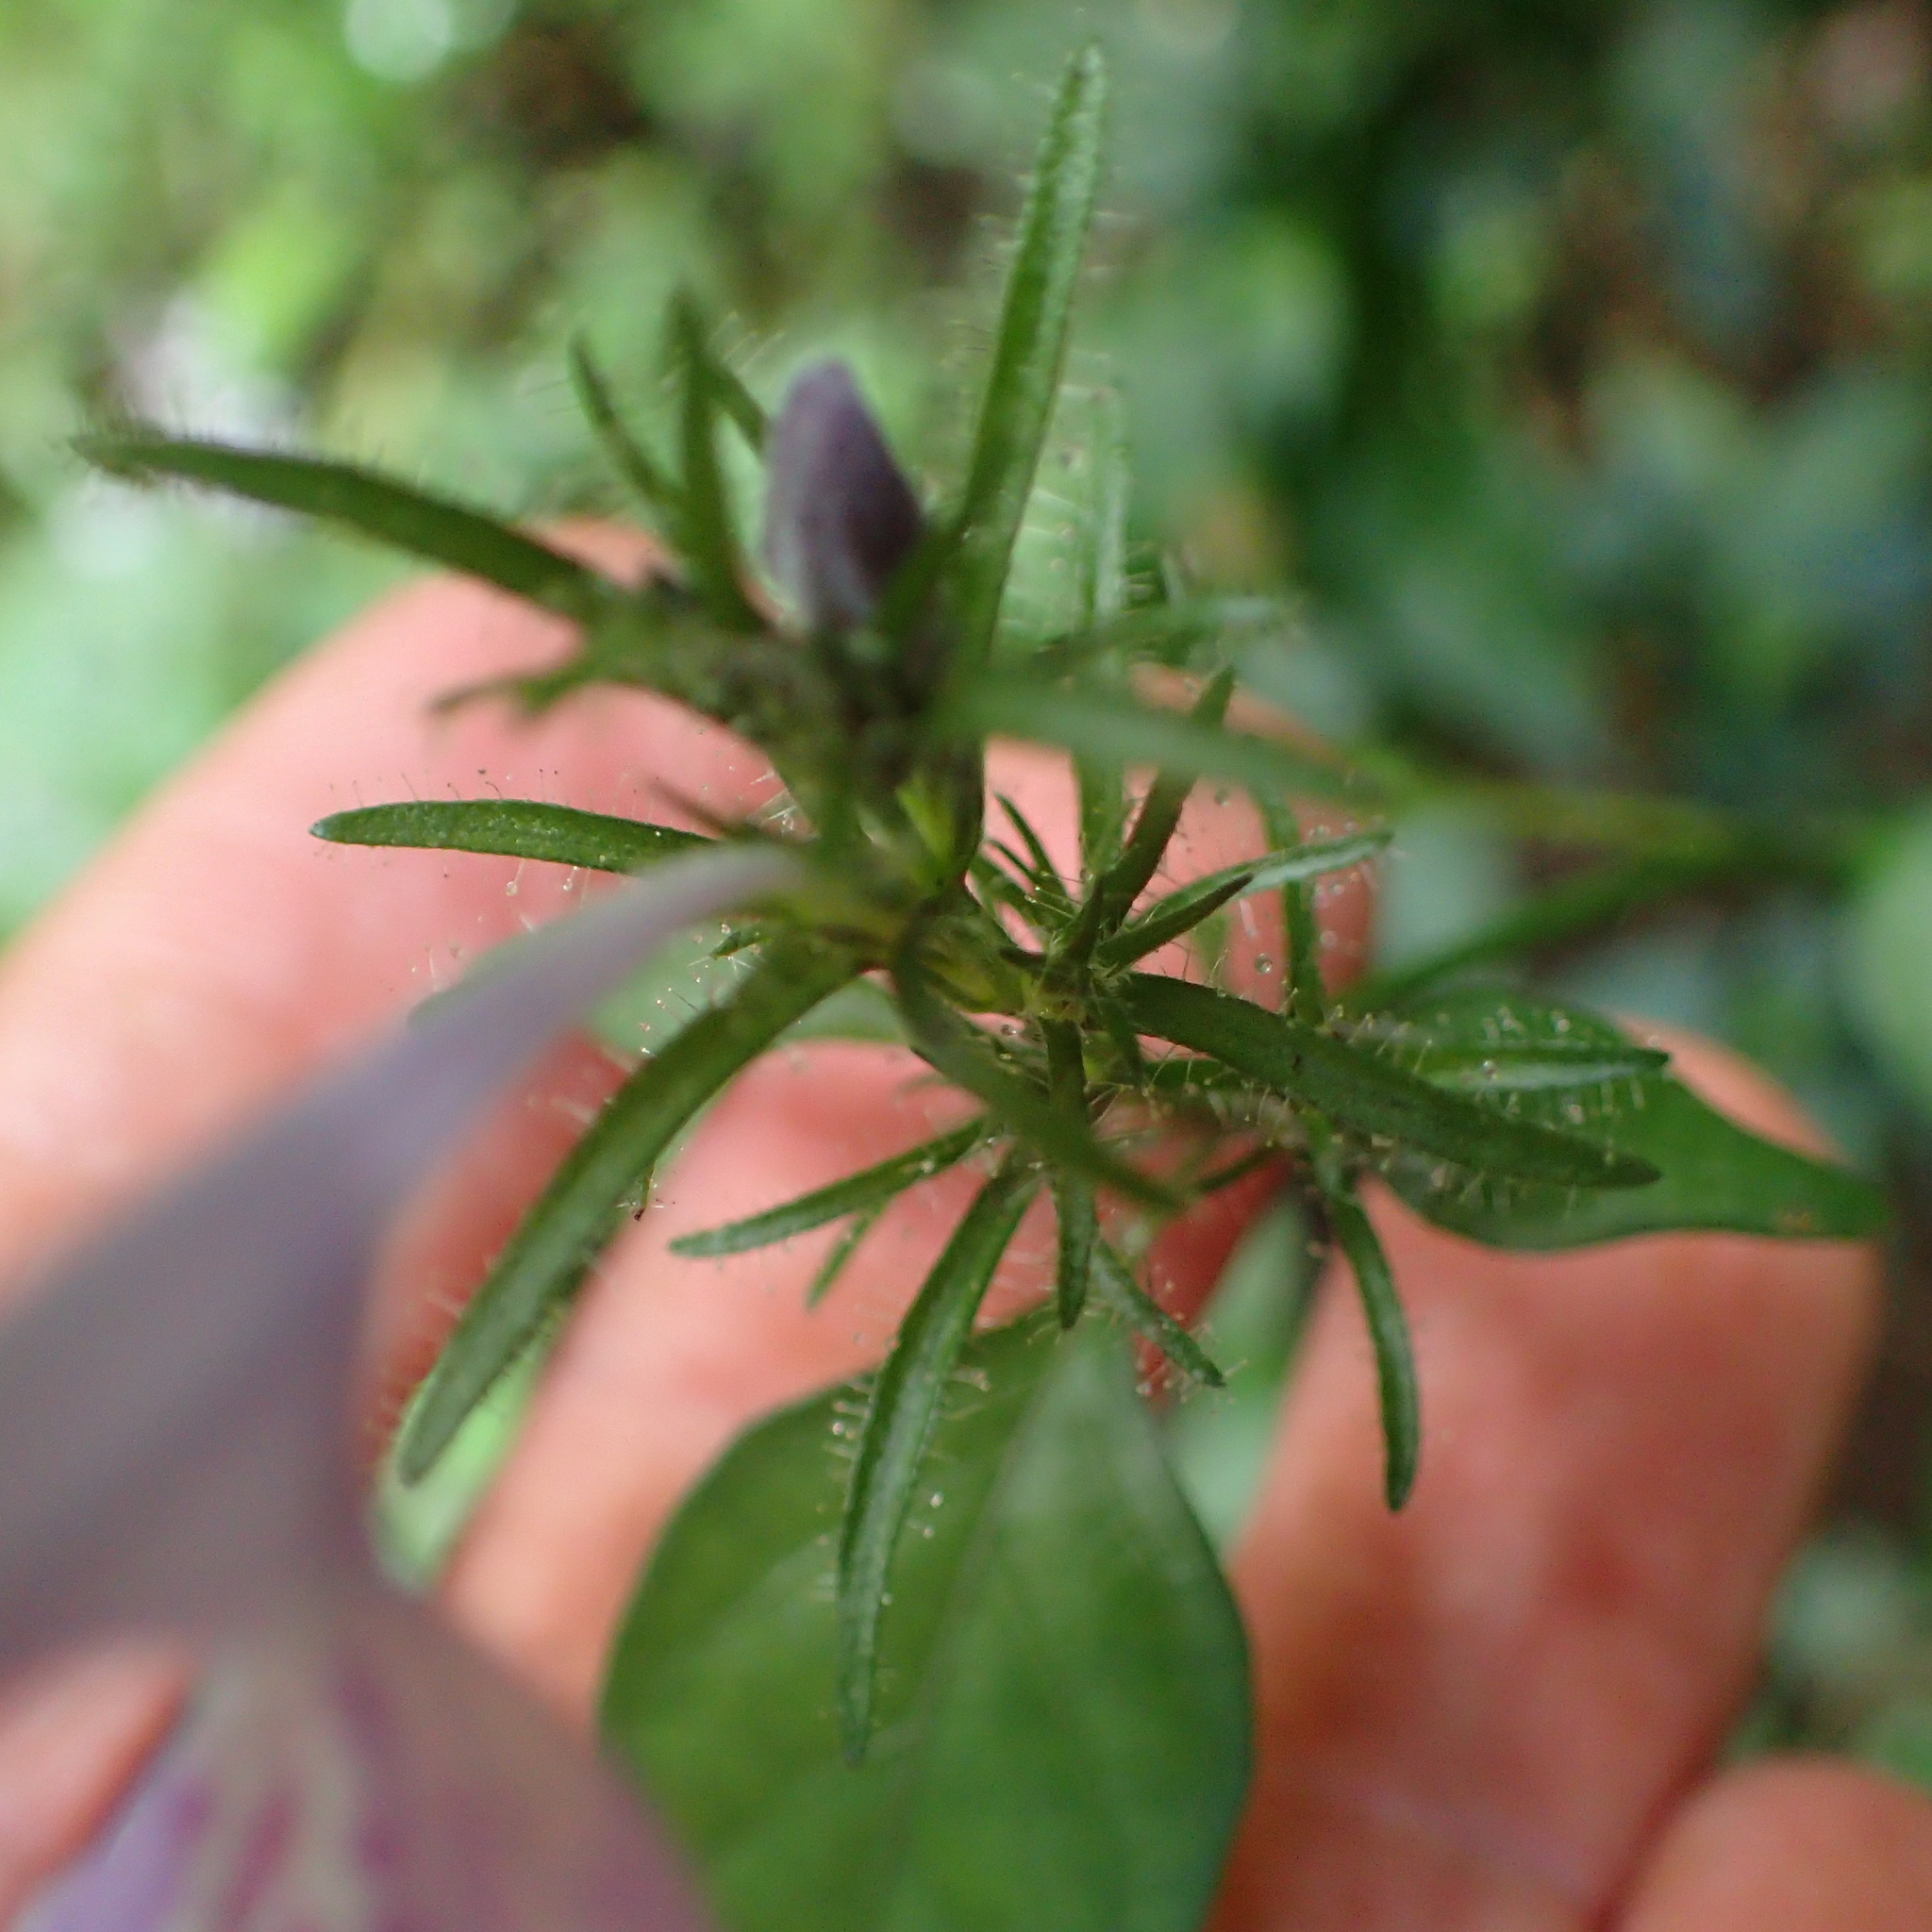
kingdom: Plantae
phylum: Tracheophyta
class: Magnoliopsida
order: Lamiales
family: Acanthaceae
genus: Isoglossa
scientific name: Isoglossa cooperi
